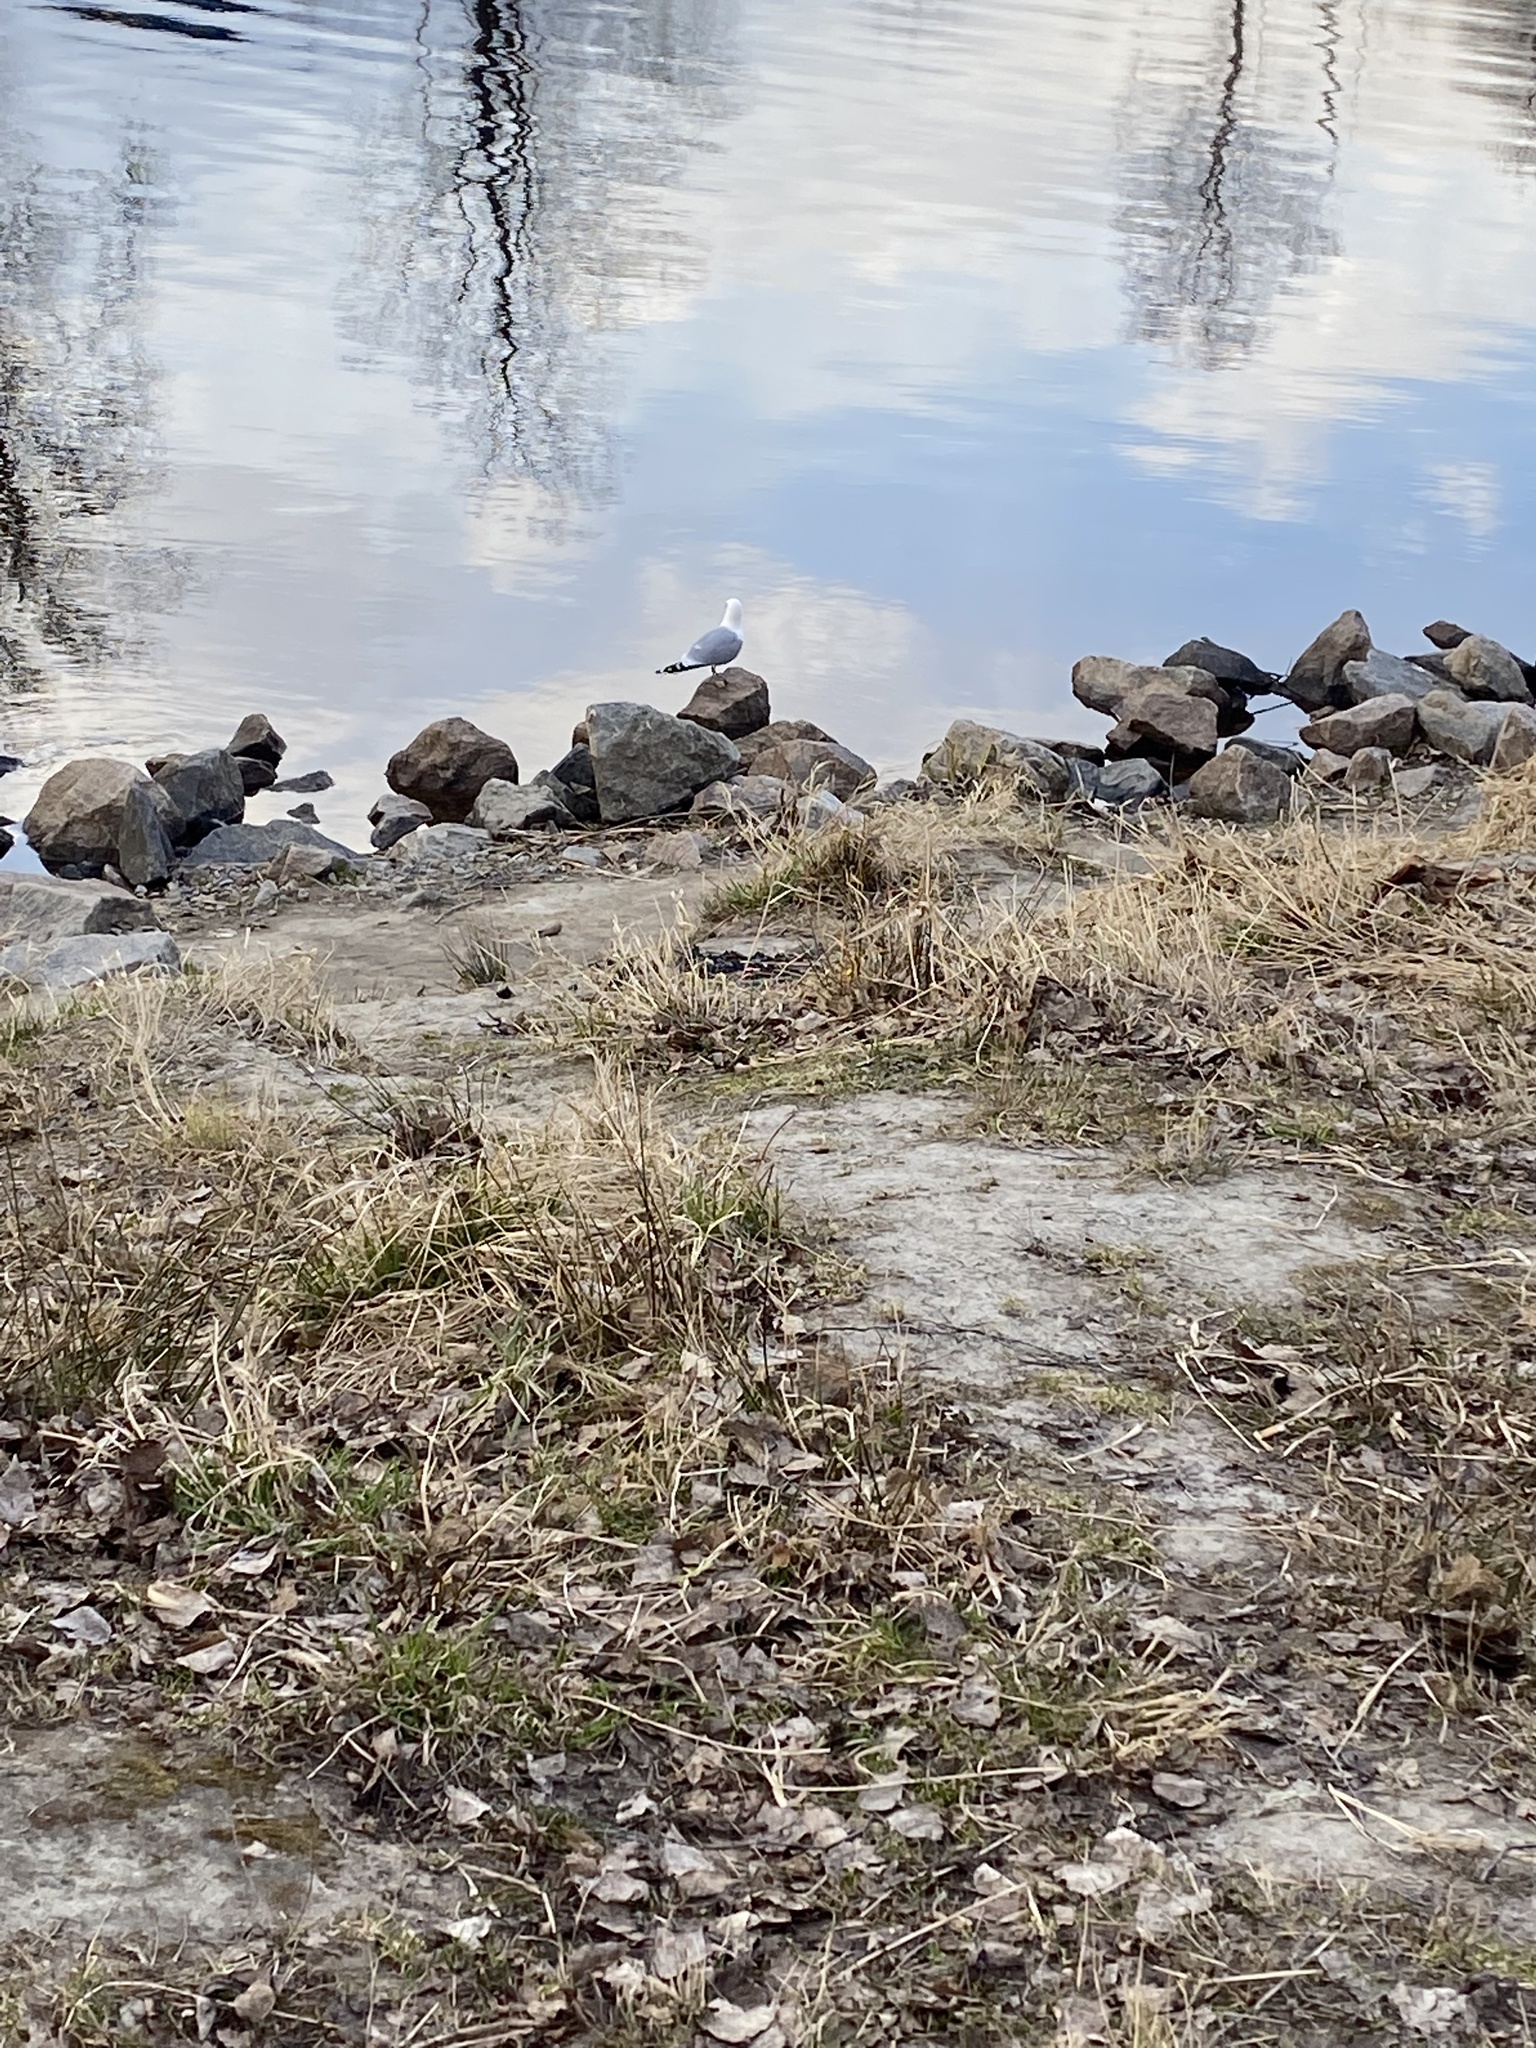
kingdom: Animalia
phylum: Chordata
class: Aves
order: Charadriiformes
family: Laridae
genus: Larus
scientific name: Larus argentatus
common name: Herring gull
